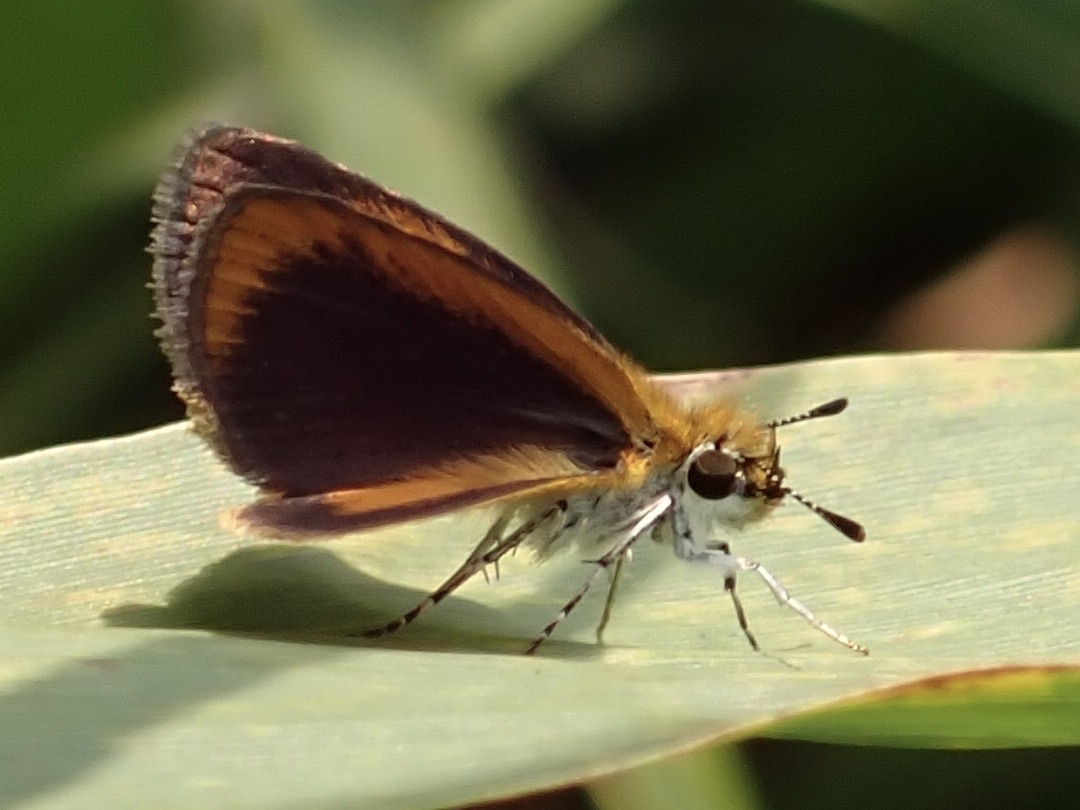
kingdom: Animalia
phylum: Arthropoda
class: Insecta
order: Lepidoptera
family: Hesperiidae
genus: Ancyloxypha
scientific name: Ancyloxypha numitor
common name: Least skipper
